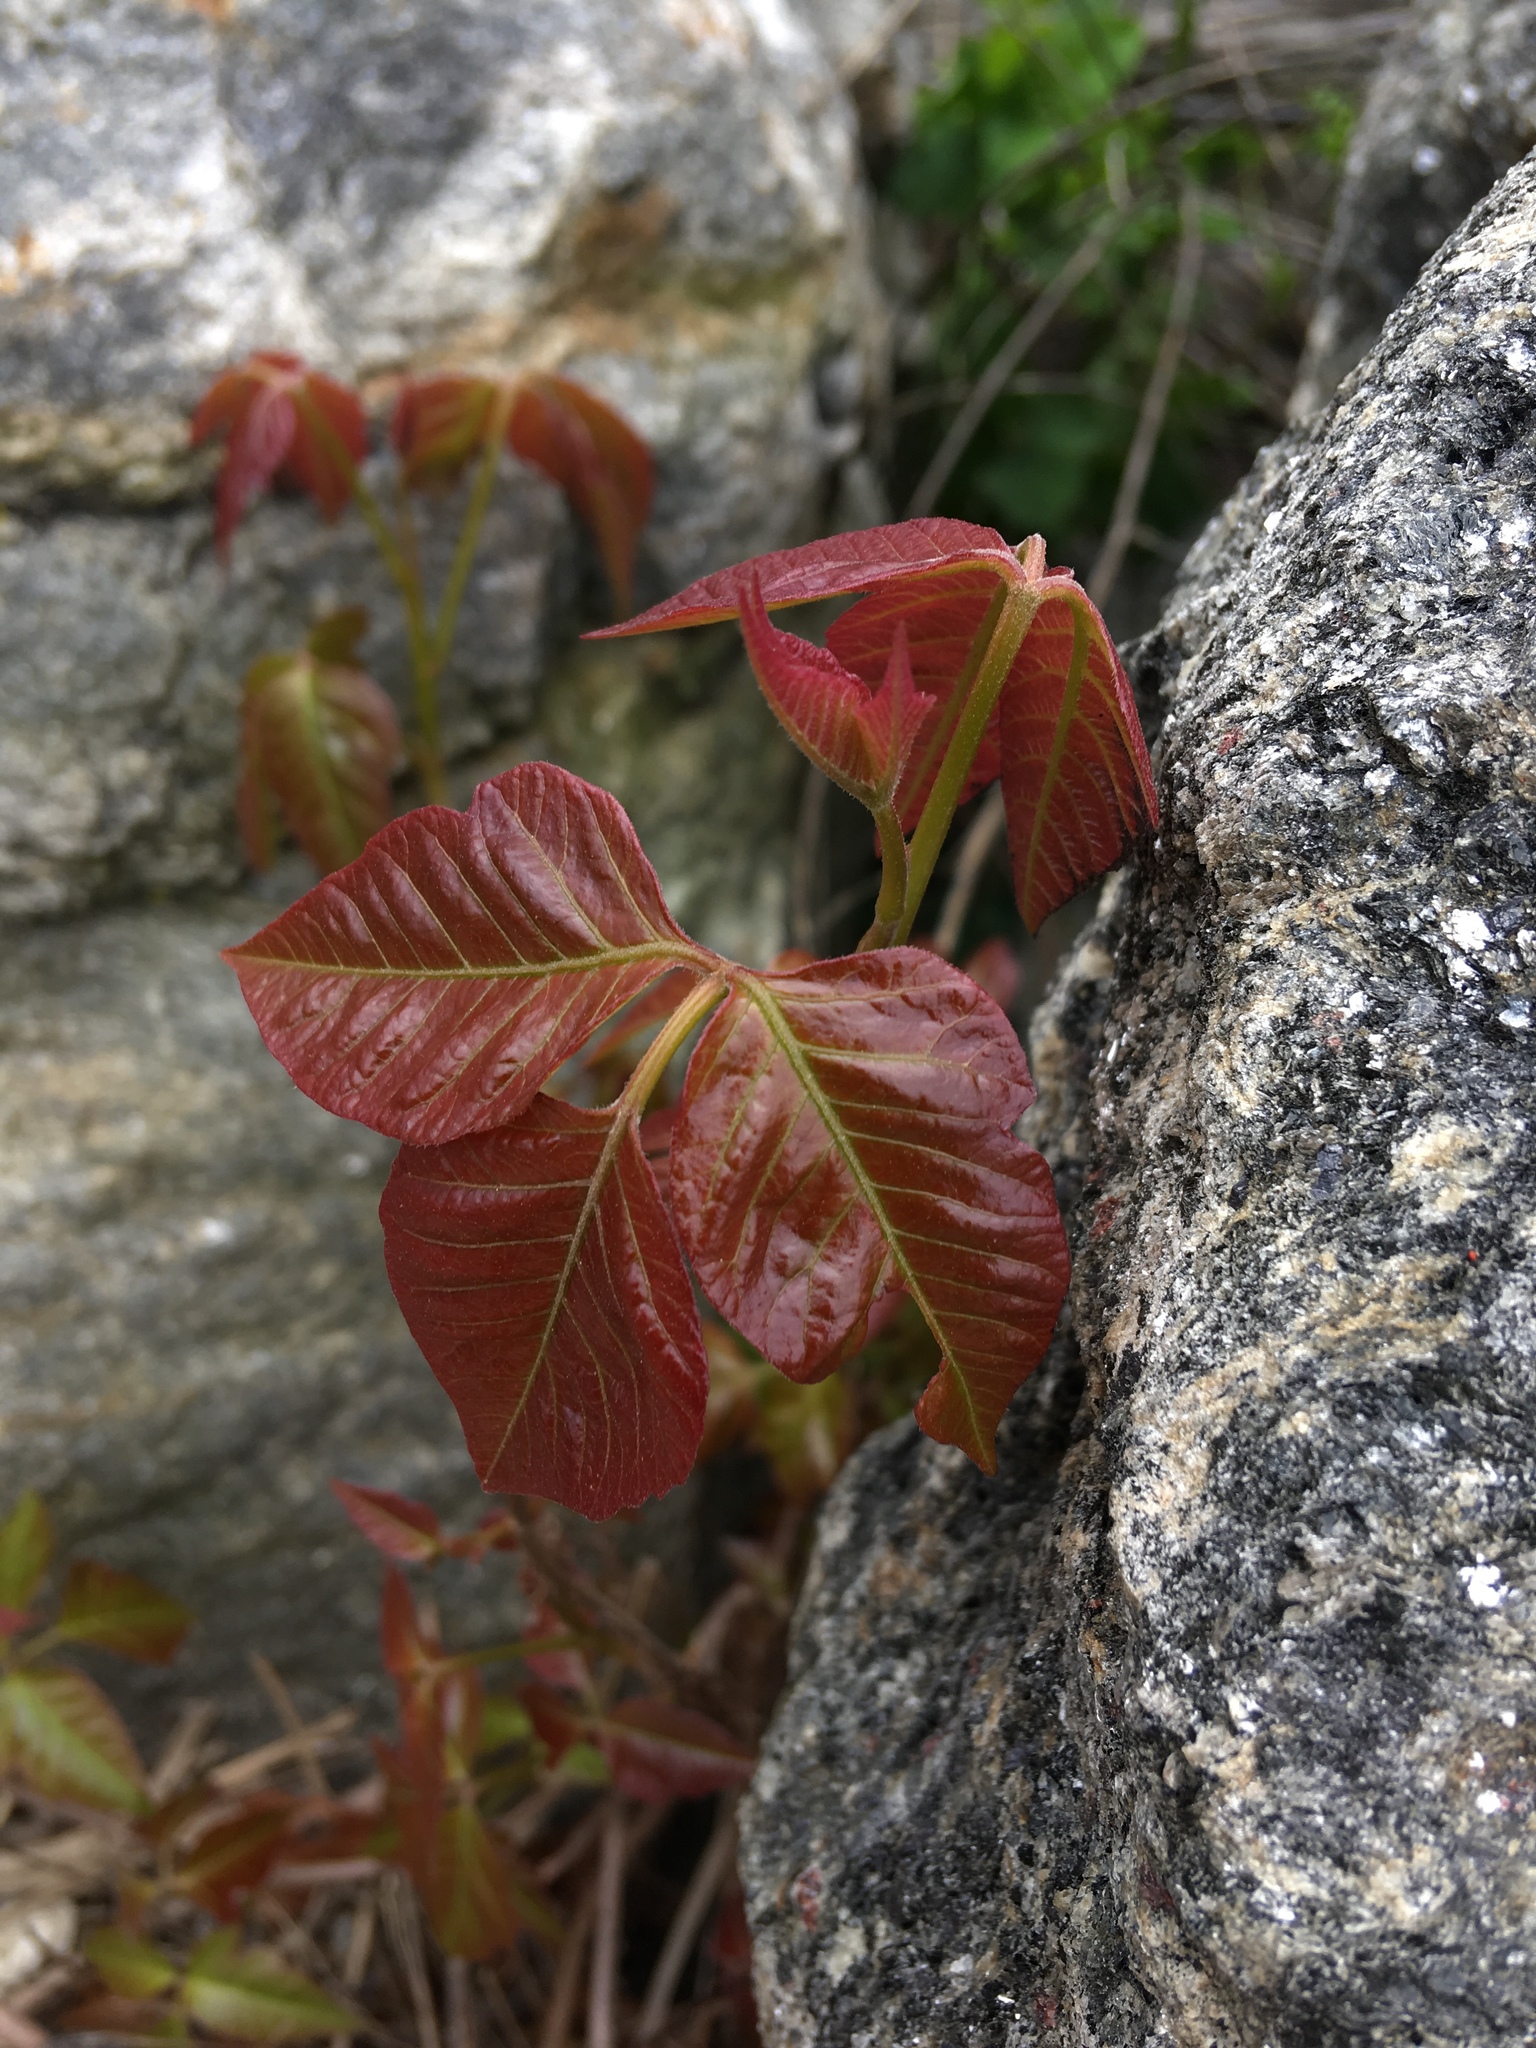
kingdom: Plantae
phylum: Tracheophyta
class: Magnoliopsida
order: Sapindales
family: Anacardiaceae
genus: Toxicodendron
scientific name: Toxicodendron radicans
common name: Poison ivy
